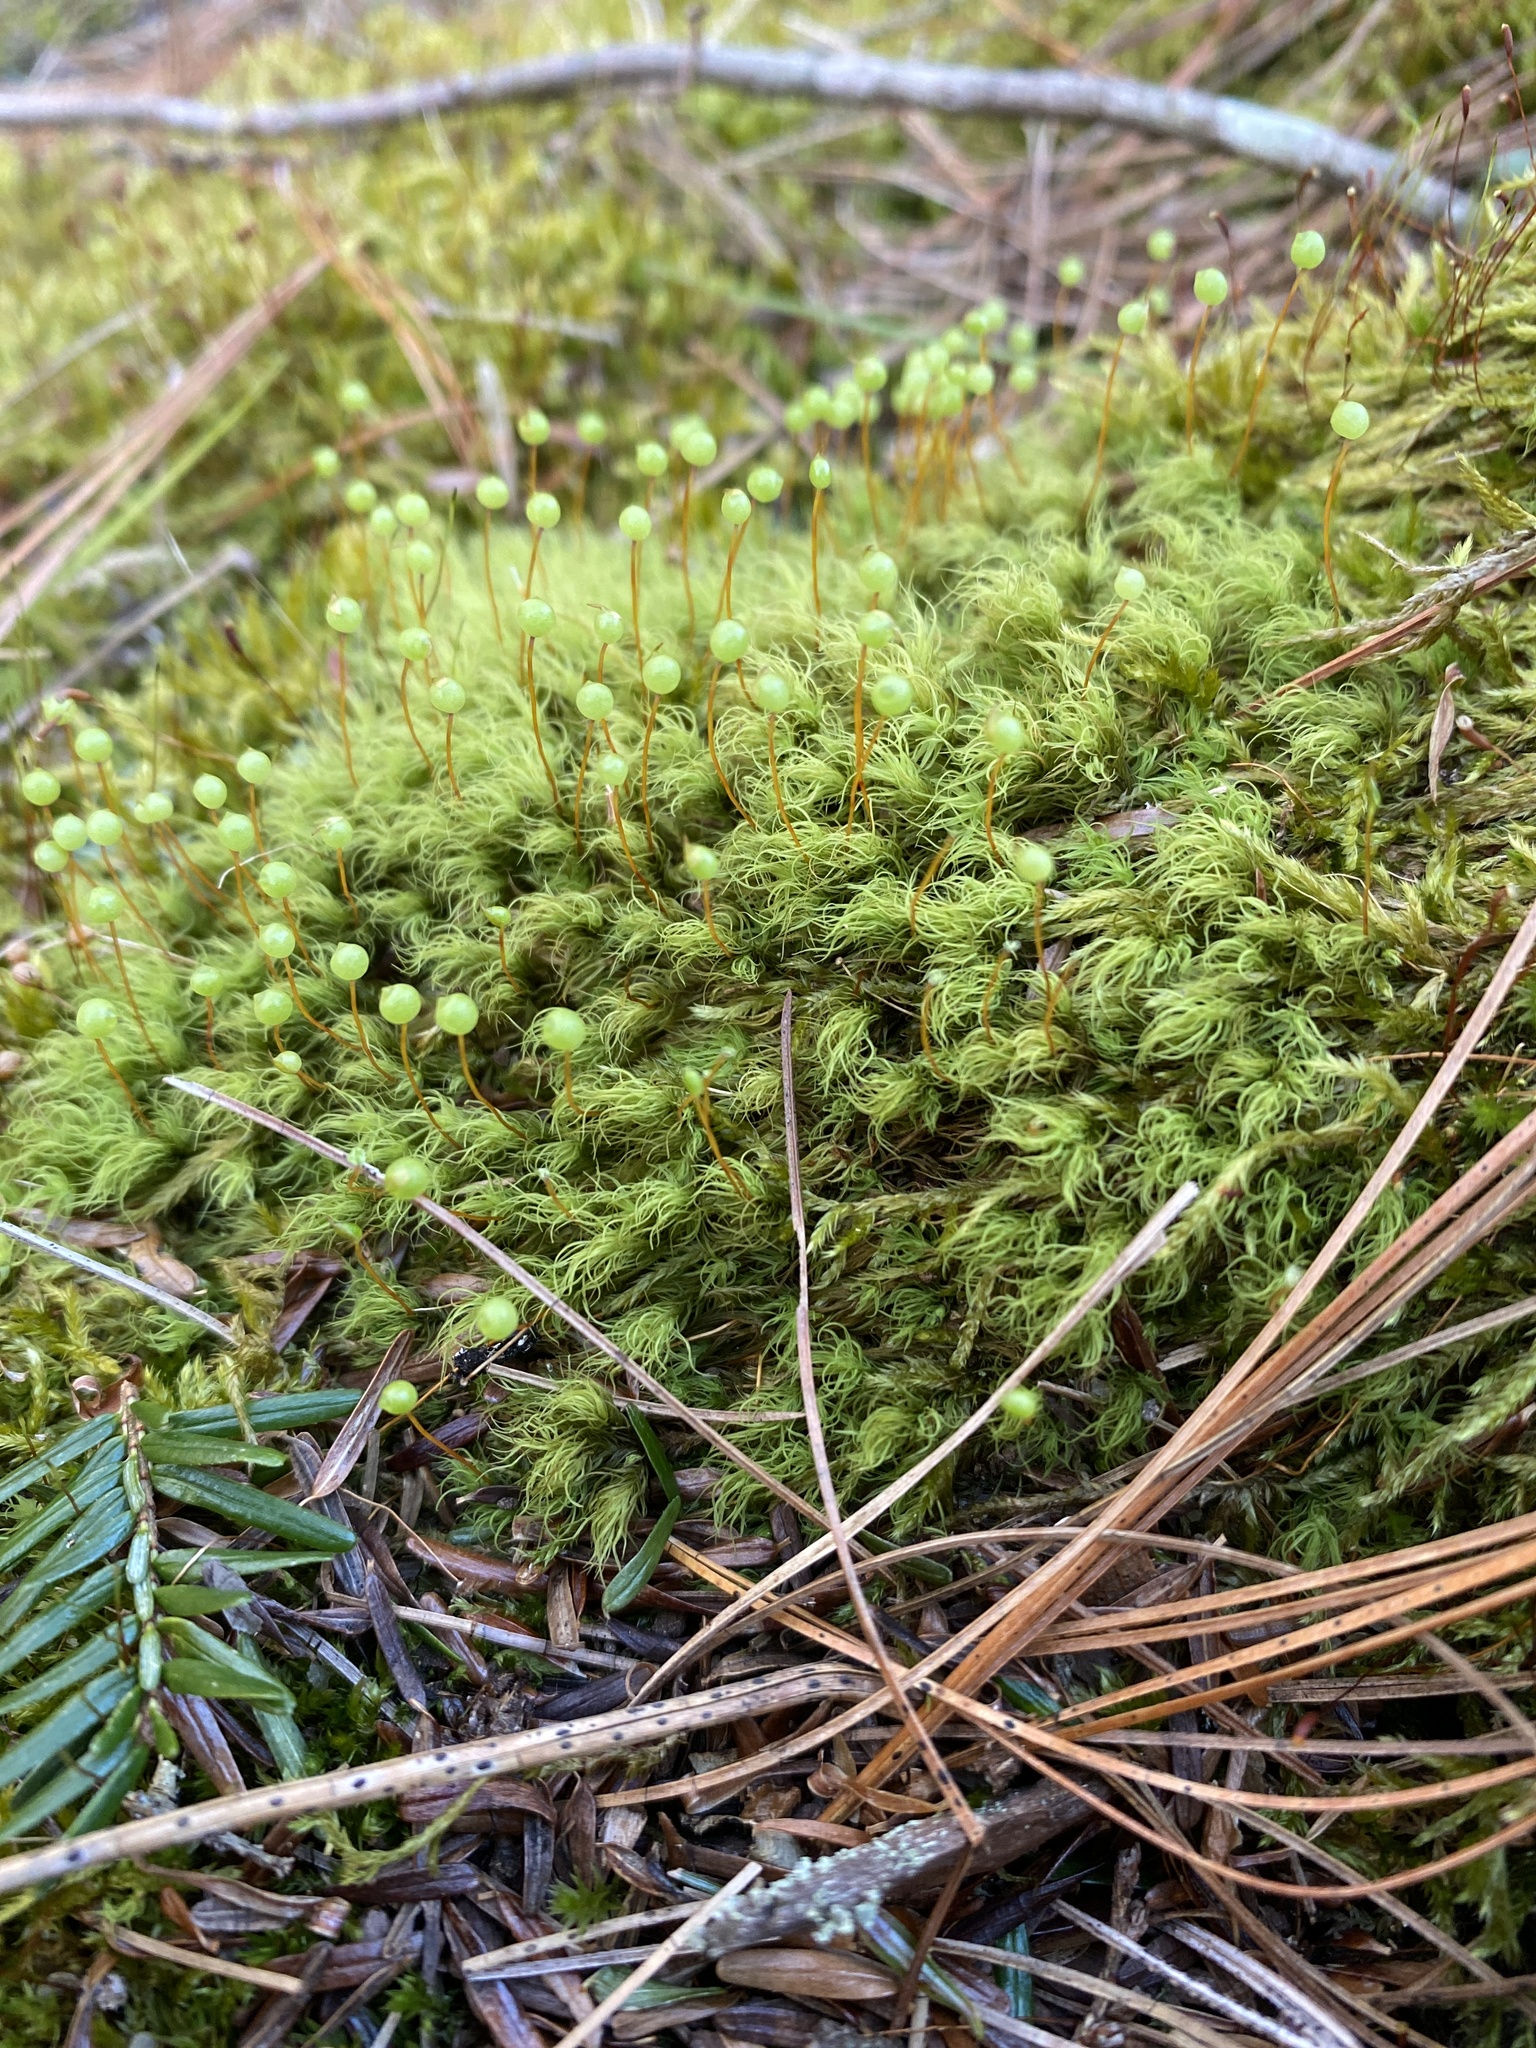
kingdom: Plantae
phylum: Bryophyta
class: Bryopsida
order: Bartramiales
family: Bartramiaceae
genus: Bartramia
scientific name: Bartramia ithyphylla
